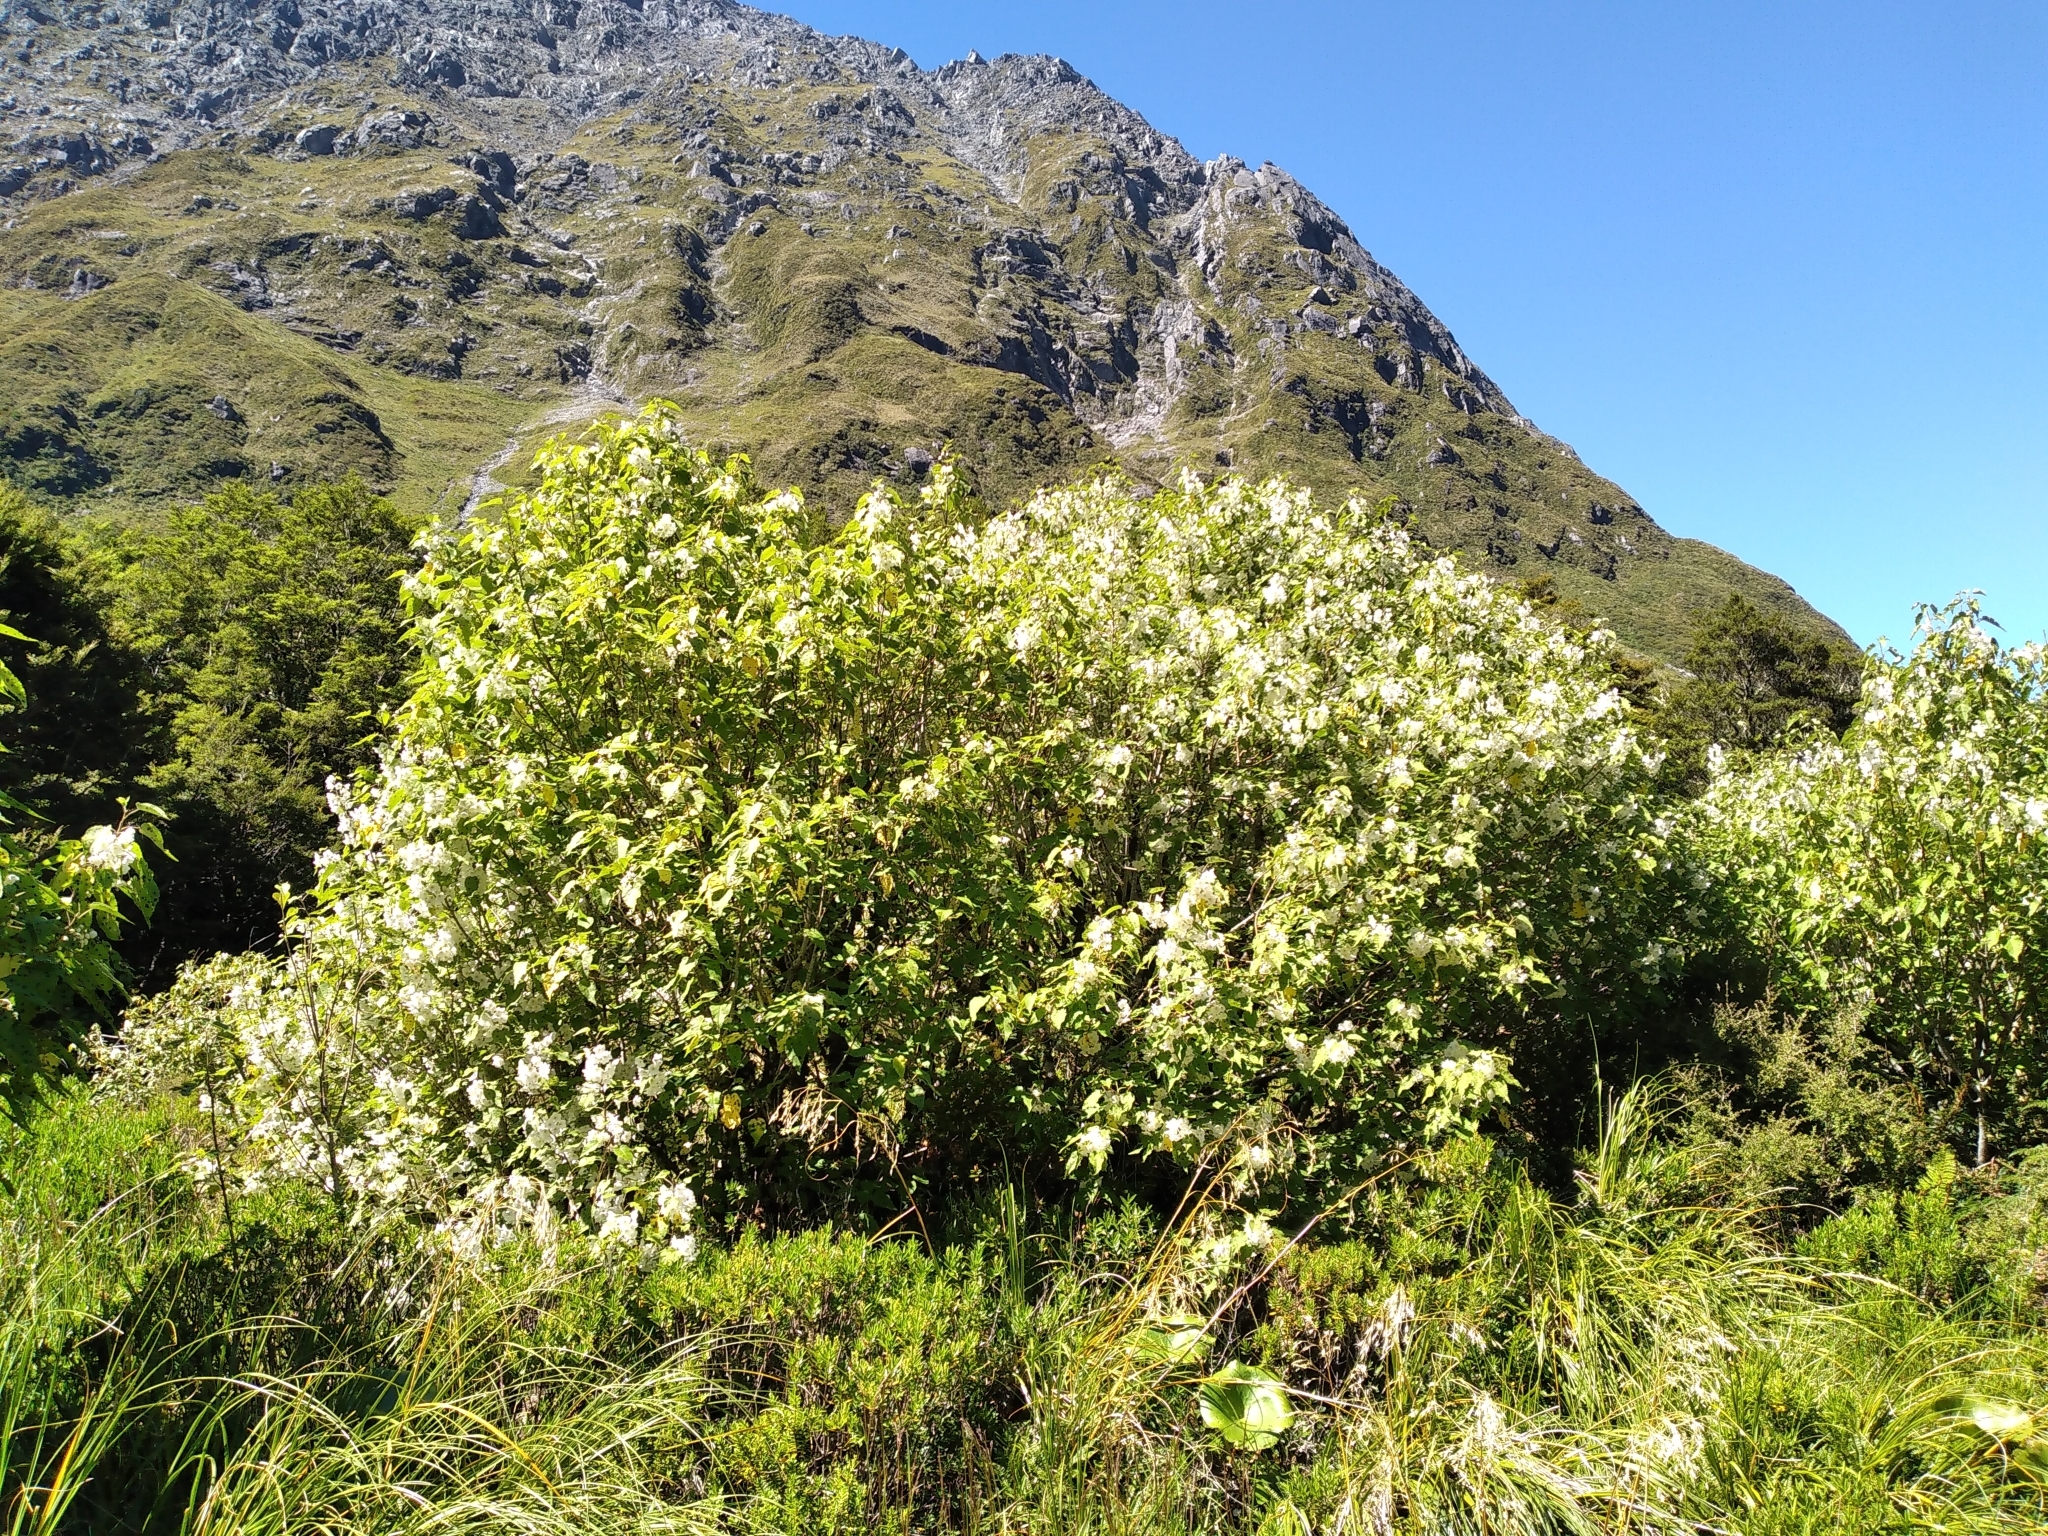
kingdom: Plantae
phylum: Tracheophyta
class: Magnoliopsida
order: Malvales
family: Malvaceae
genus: Hoheria
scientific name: Hoheria glabrata
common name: Mountain-ribbon
